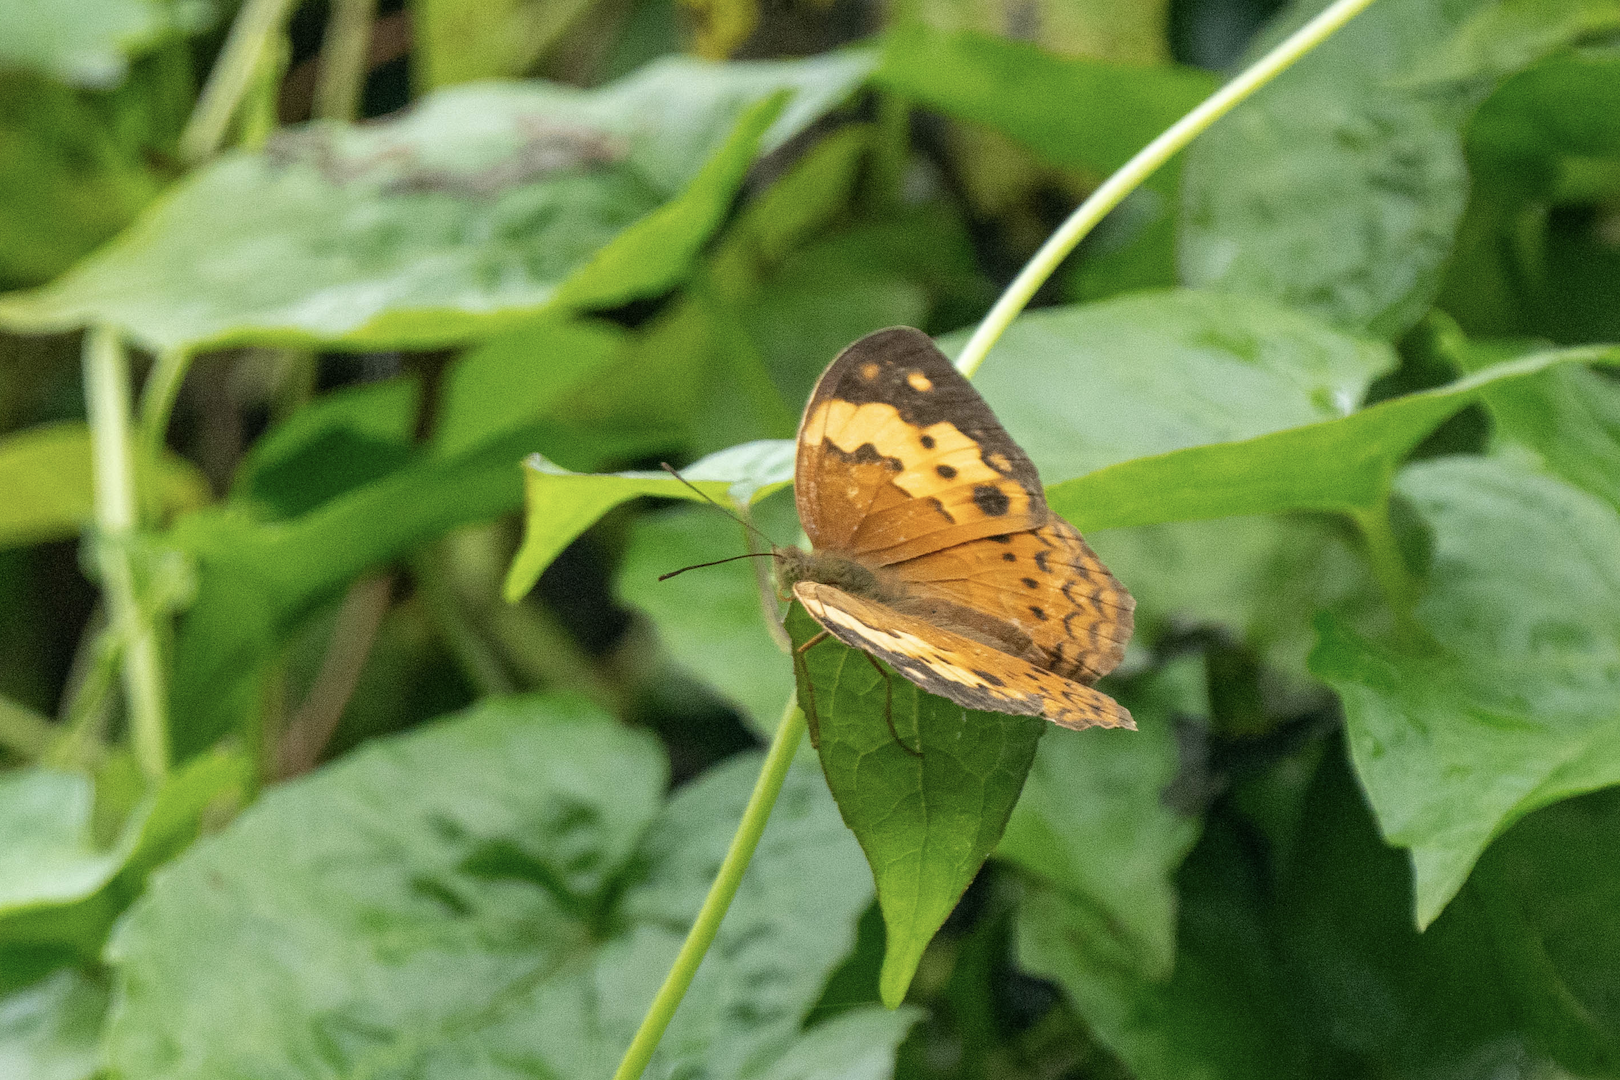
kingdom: Animalia
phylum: Arthropoda
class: Insecta
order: Lepidoptera
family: Nymphalidae
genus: Cupha
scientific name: Cupha erymanthis
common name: Rustic
